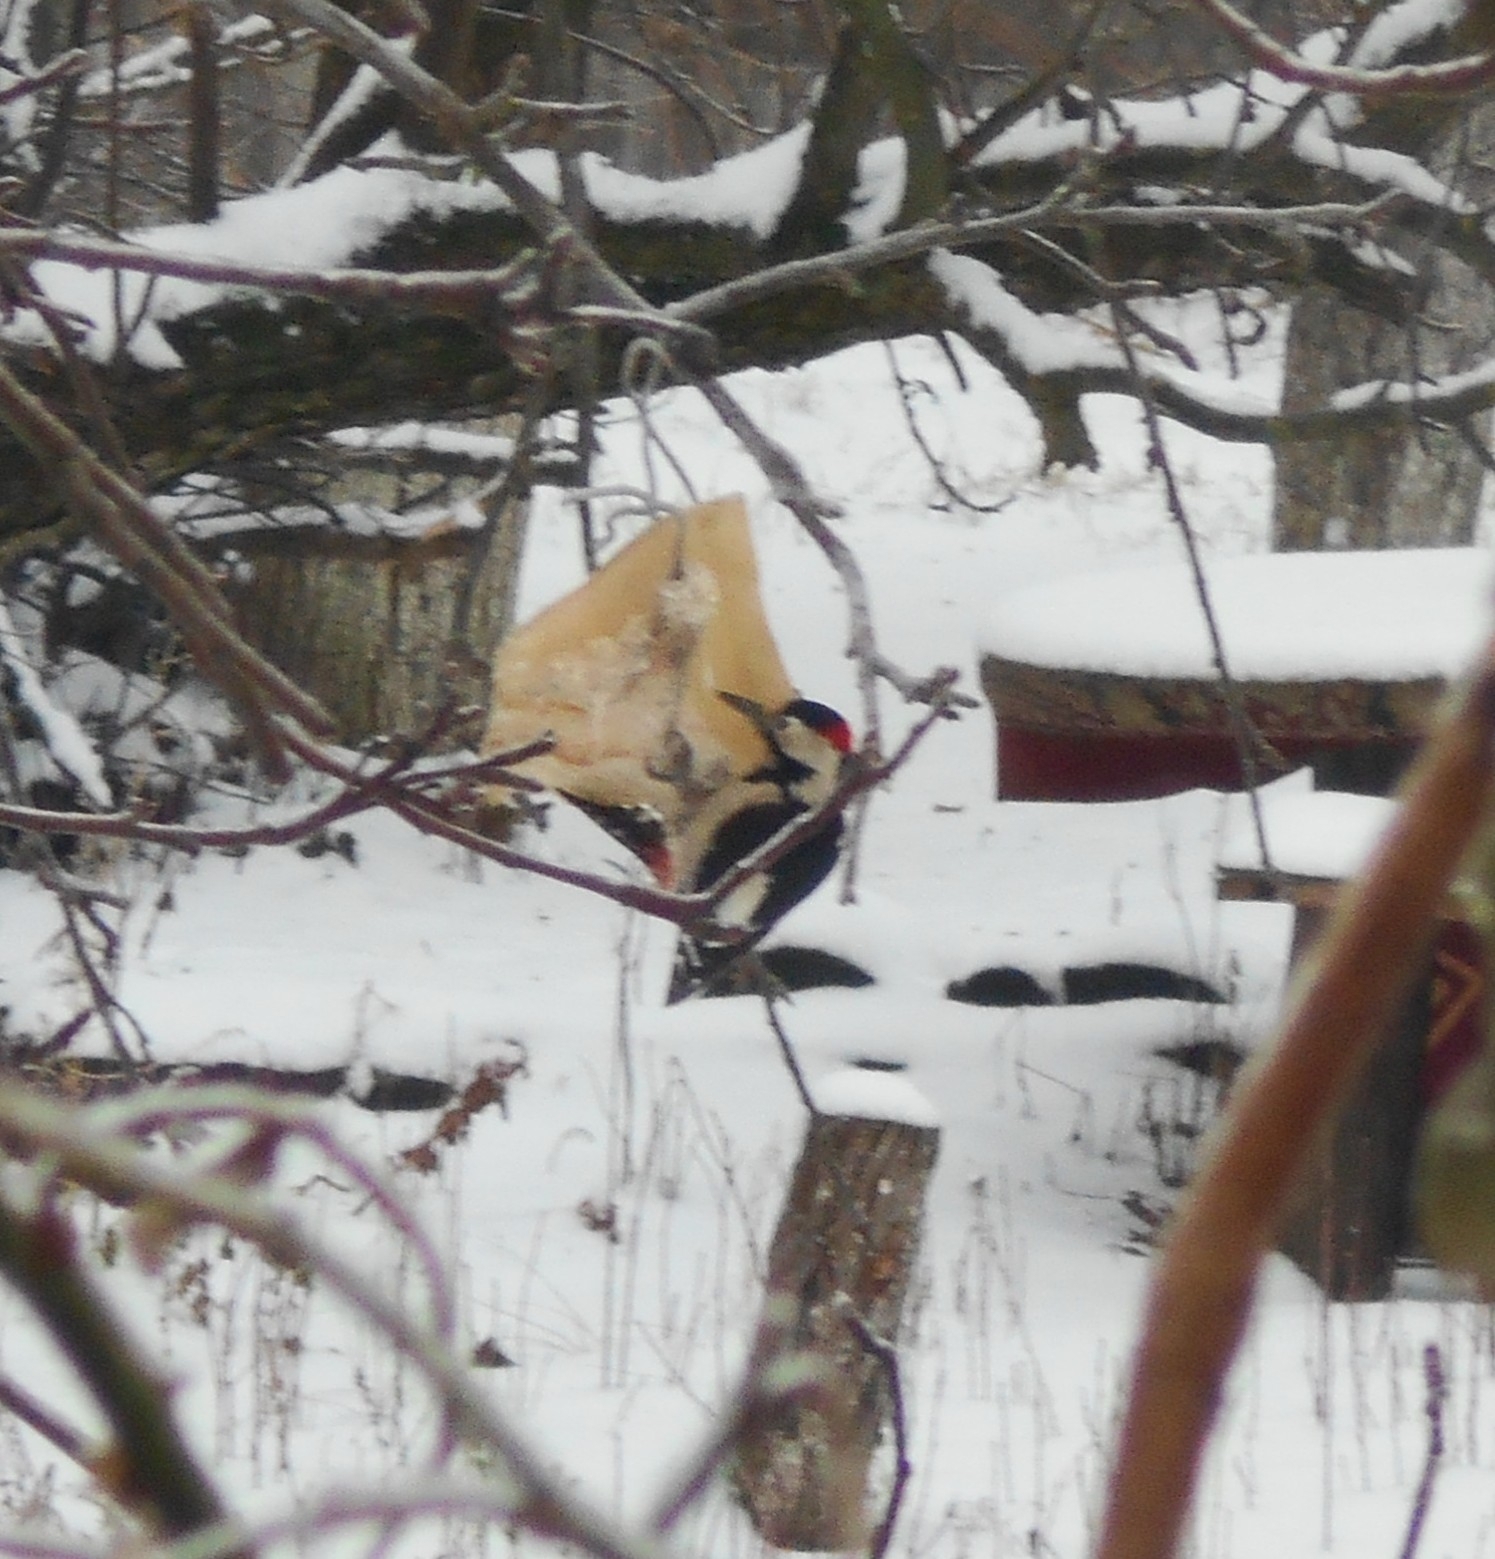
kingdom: Animalia
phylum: Chordata
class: Aves
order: Piciformes
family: Picidae
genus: Dendrocopos
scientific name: Dendrocopos syriacus
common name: Syrian woodpecker
